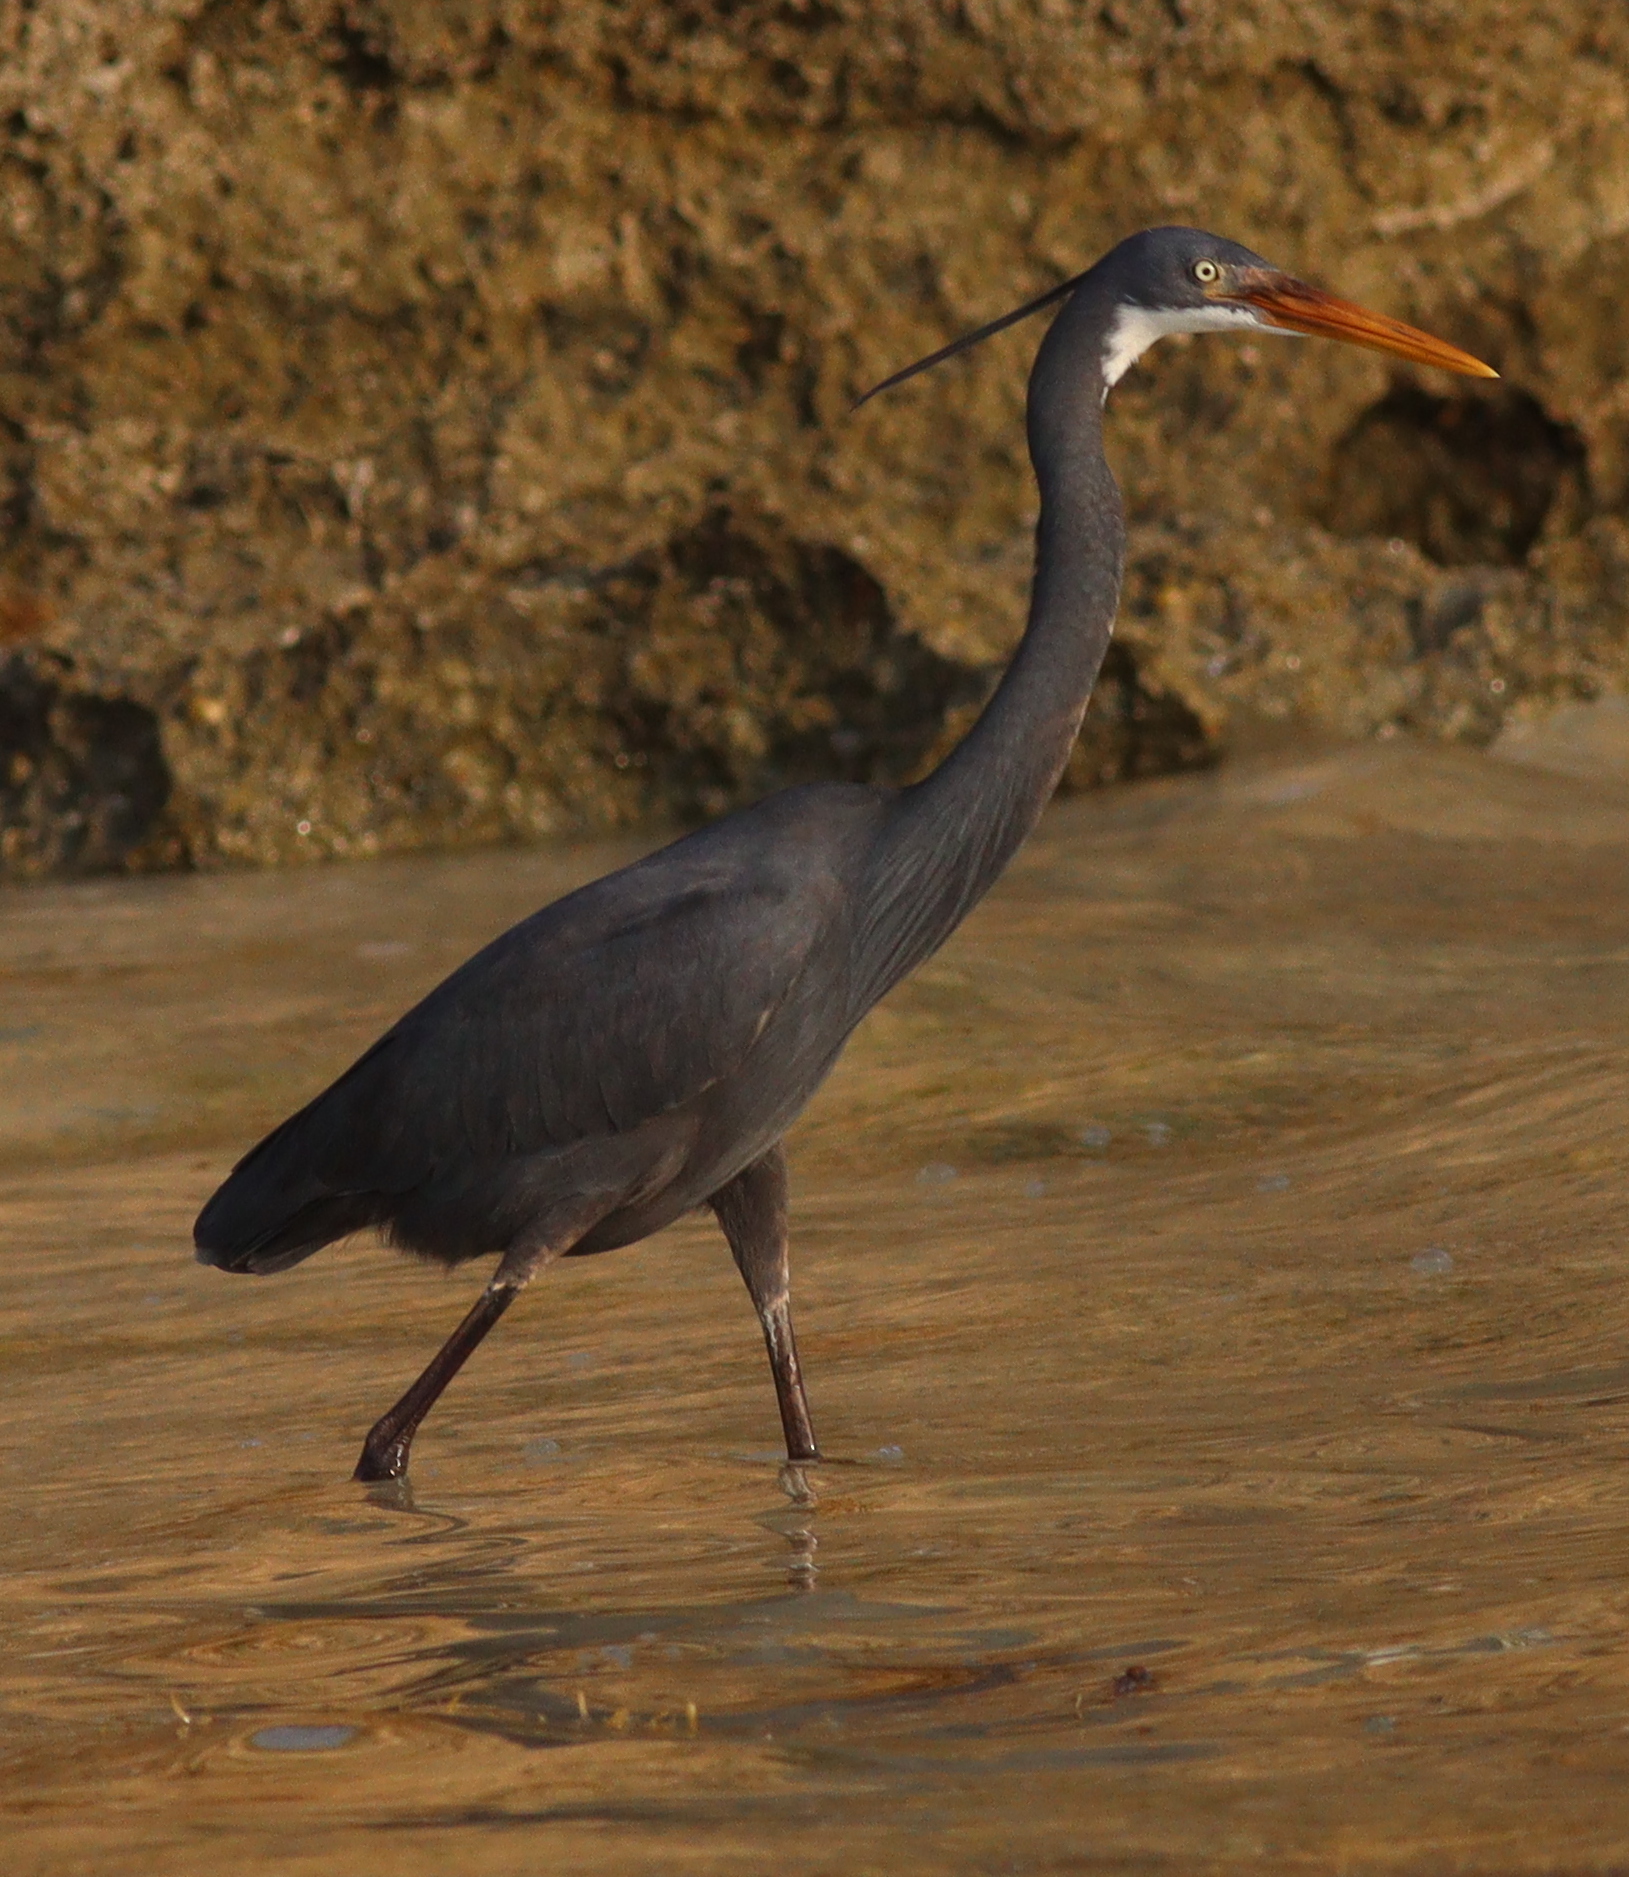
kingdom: Animalia
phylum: Chordata
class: Aves
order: Pelecaniformes
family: Ardeidae
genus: Egretta
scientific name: Egretta gularis
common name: Western reef-heron
